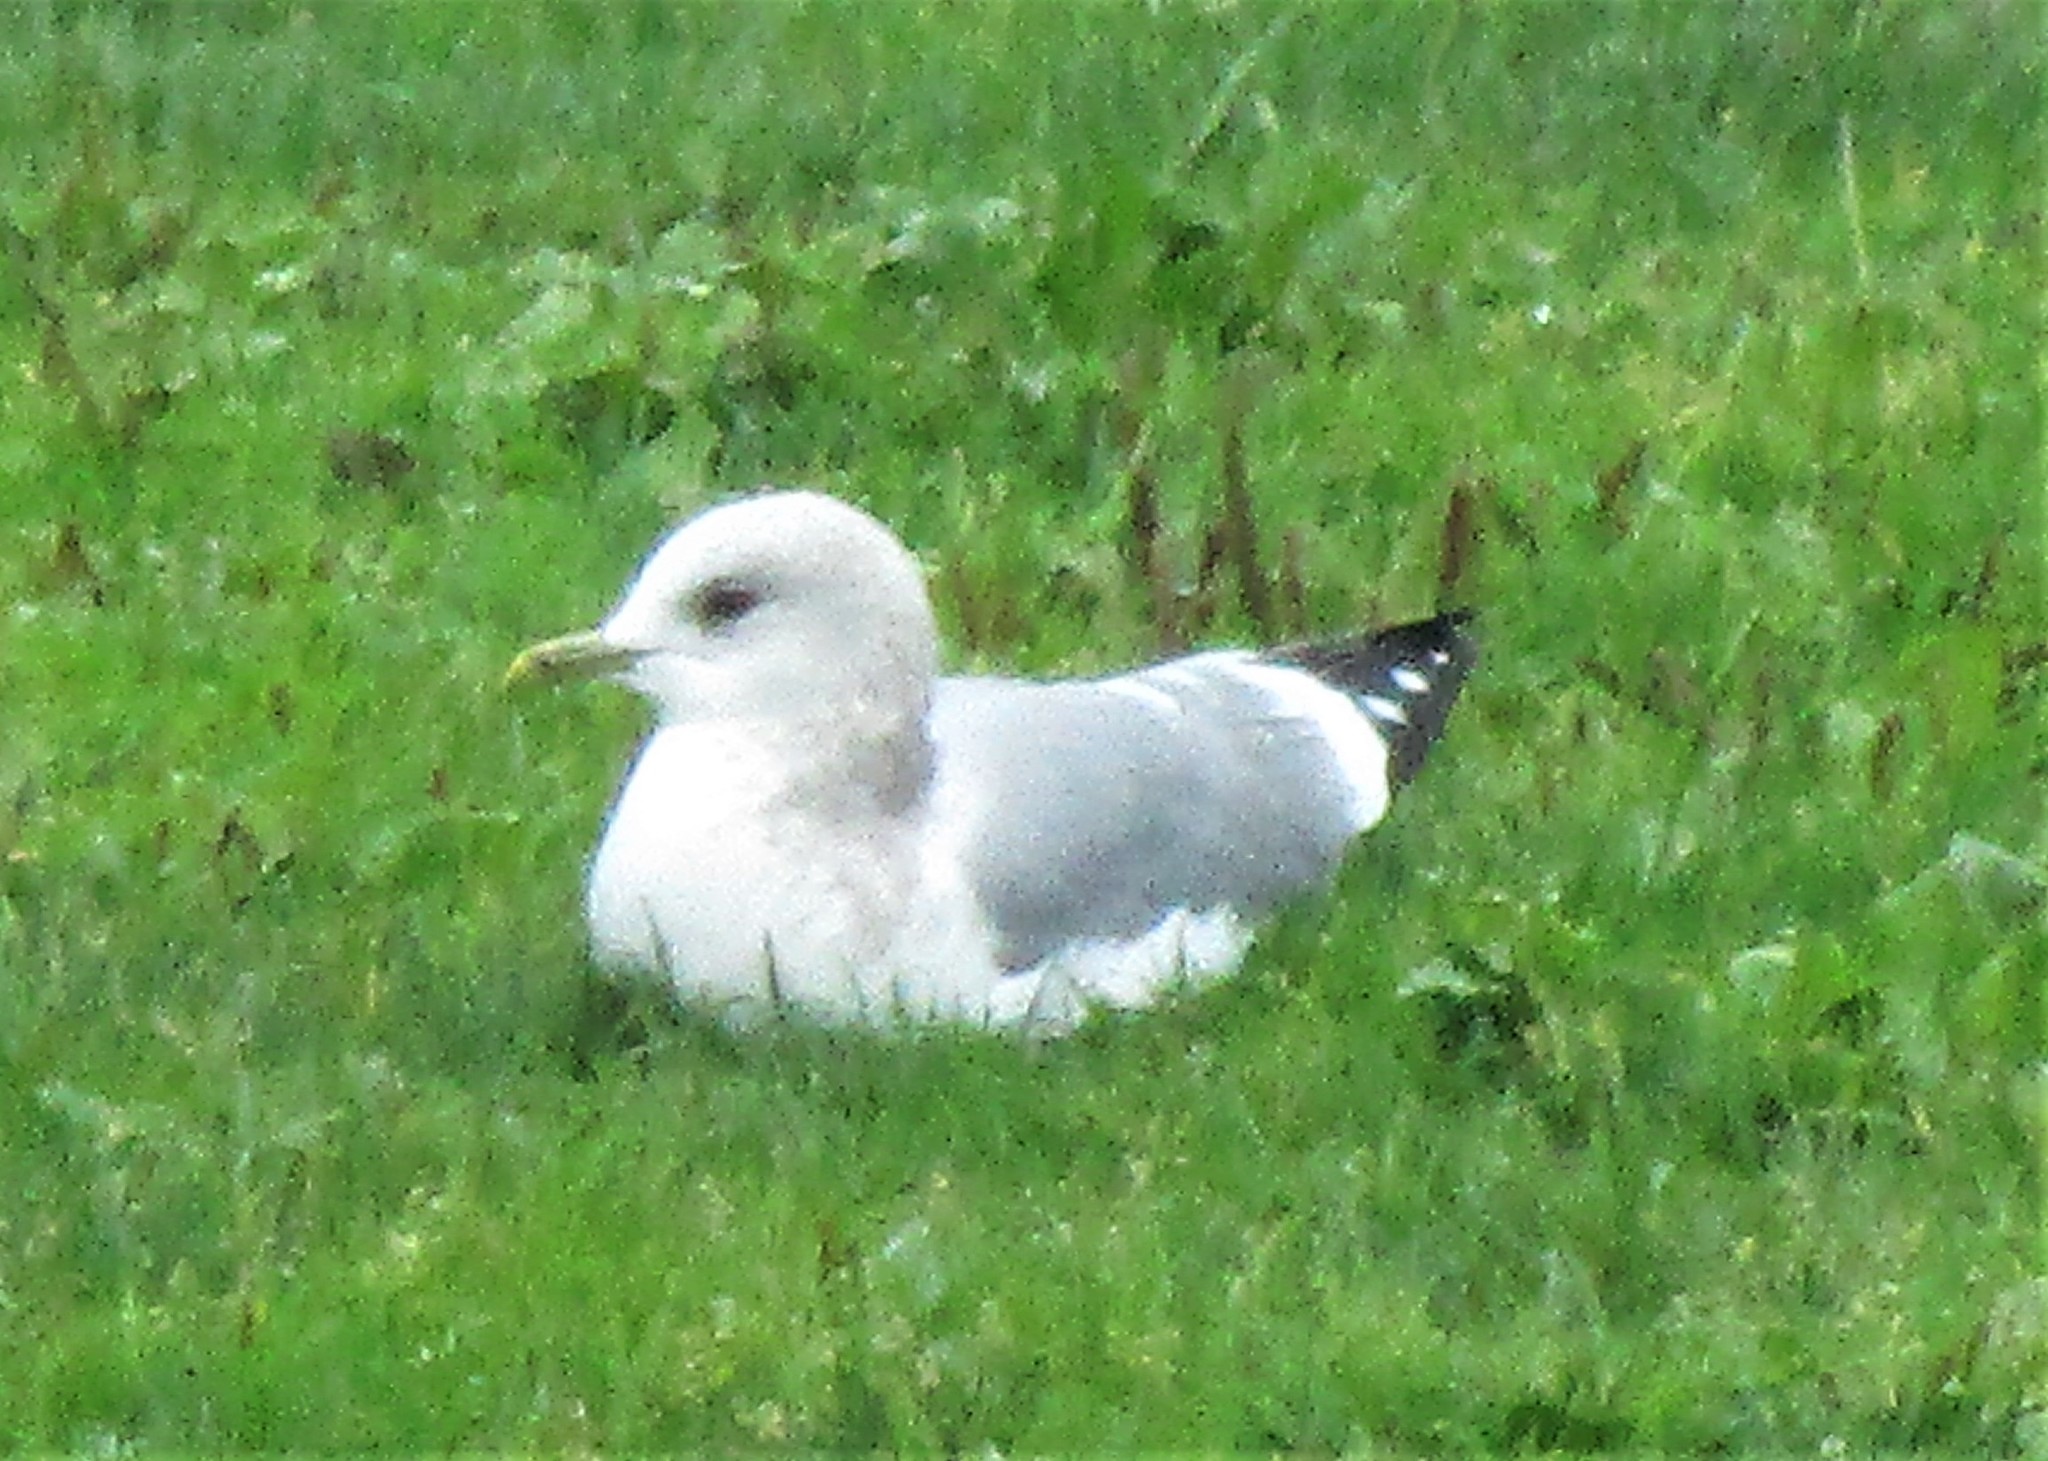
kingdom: Animalia
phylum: Chordata
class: Aves
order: Charadriiformes
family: Laridae
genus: Larus
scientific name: Larus brachyrhynchus
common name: Short-billed gull
